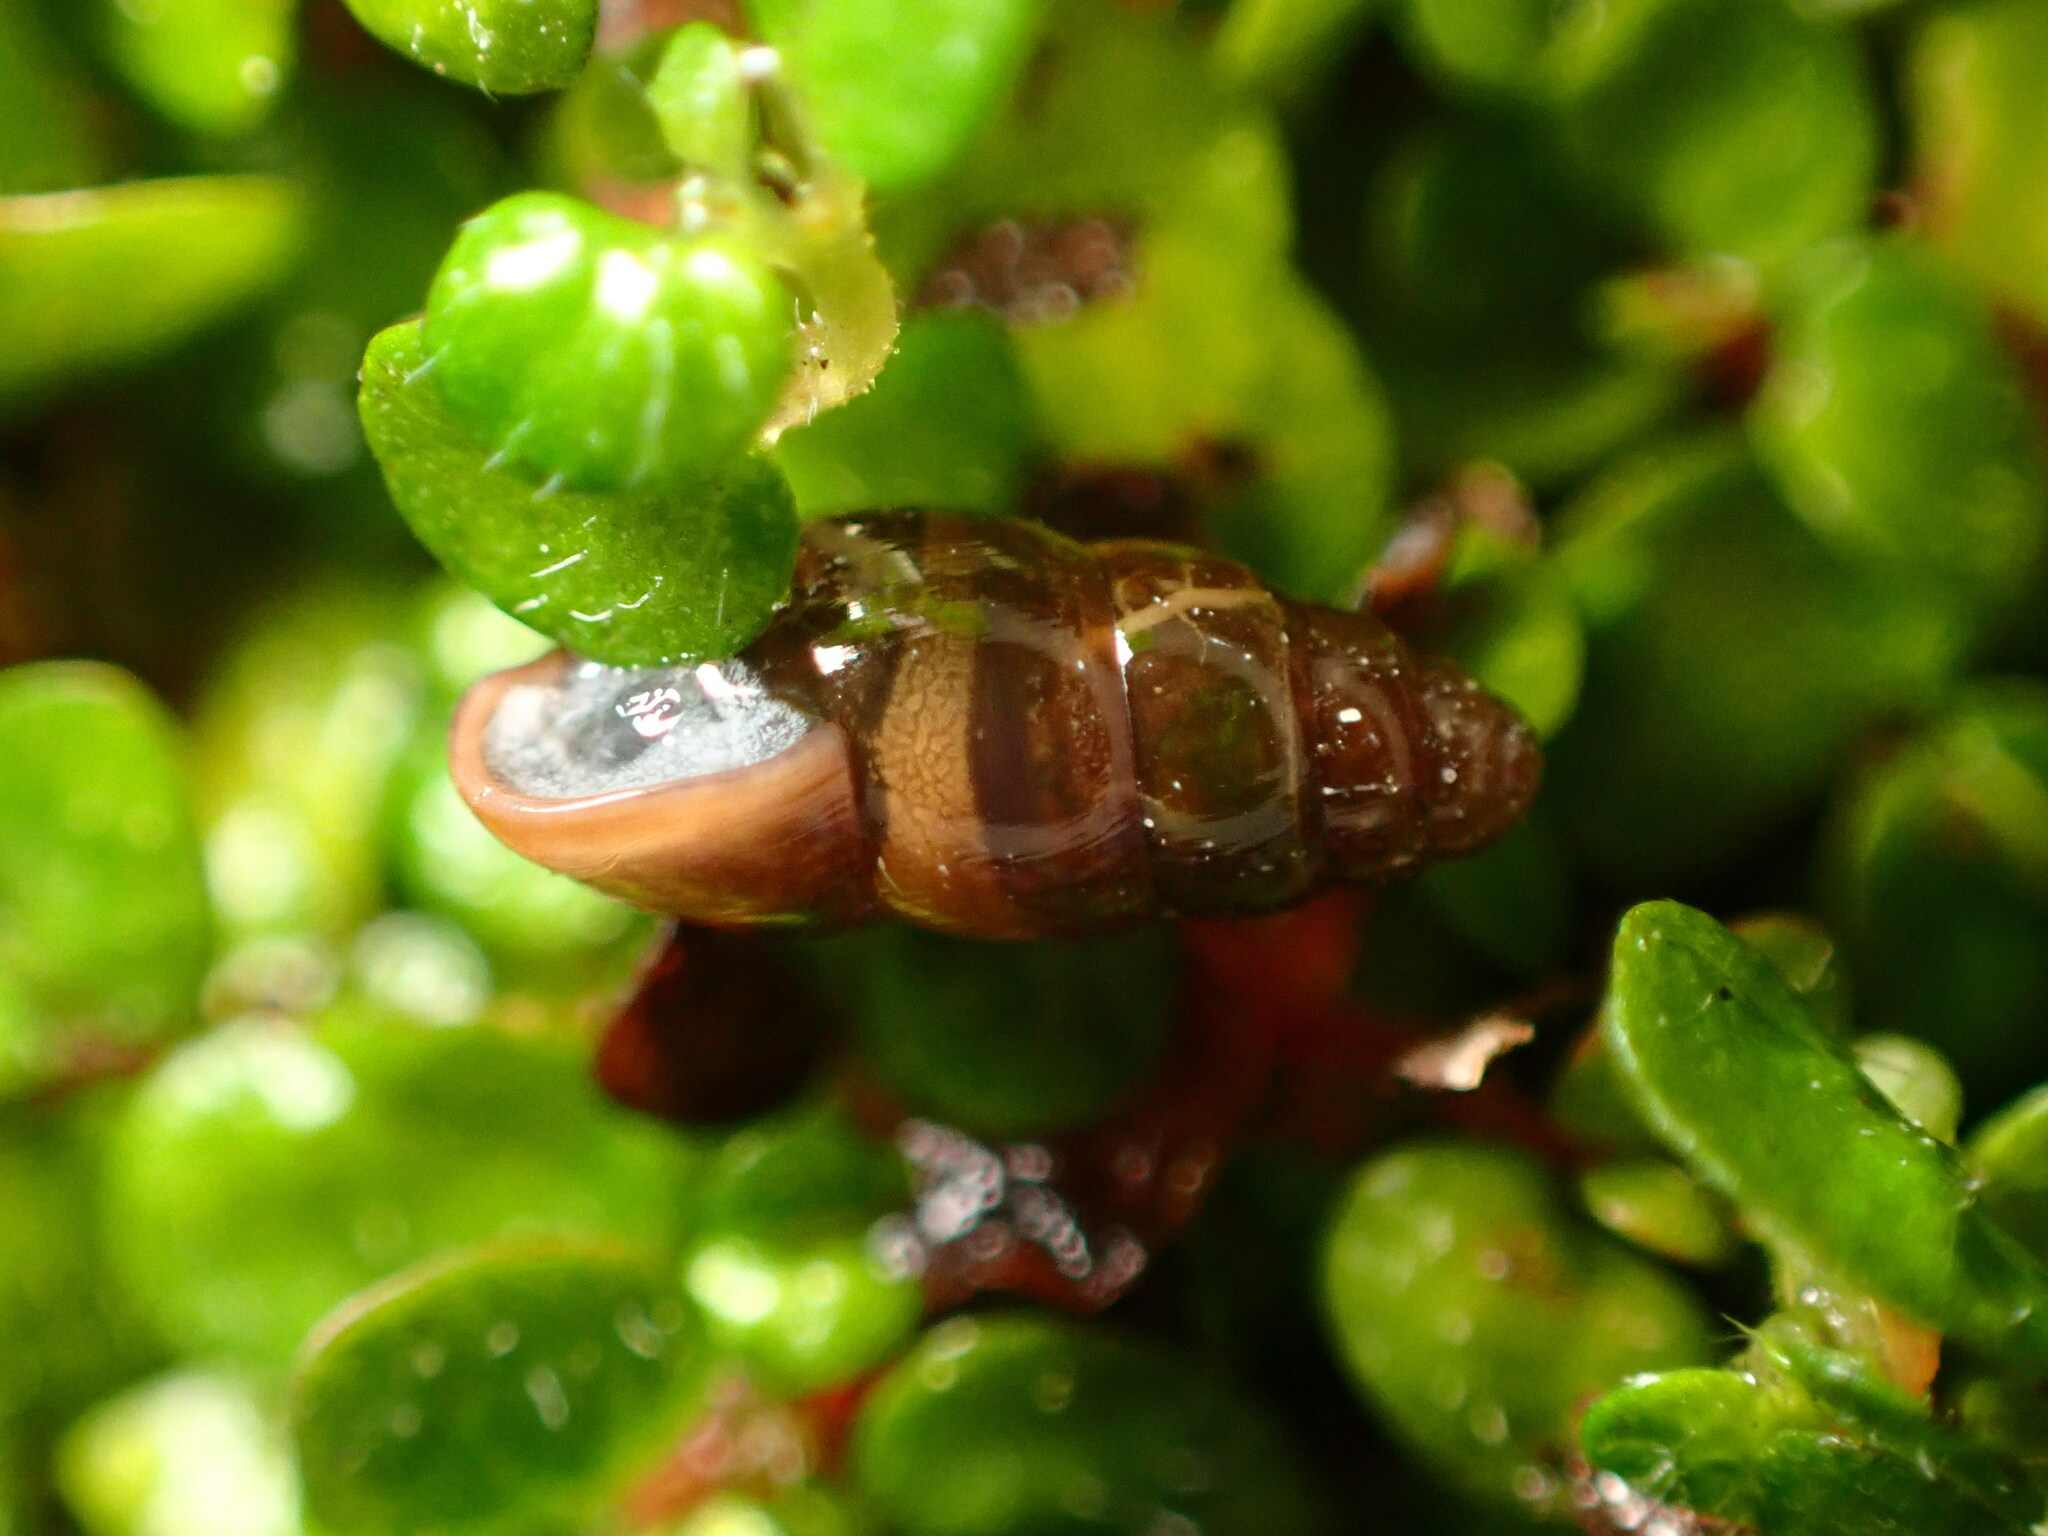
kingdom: Animalia
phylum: Mollusca
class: Gastropoda
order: Stylommatophora
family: Cochlicopidae
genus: Cochlicopa
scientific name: Cochlicopa lubrica
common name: Glossy pillar snail
